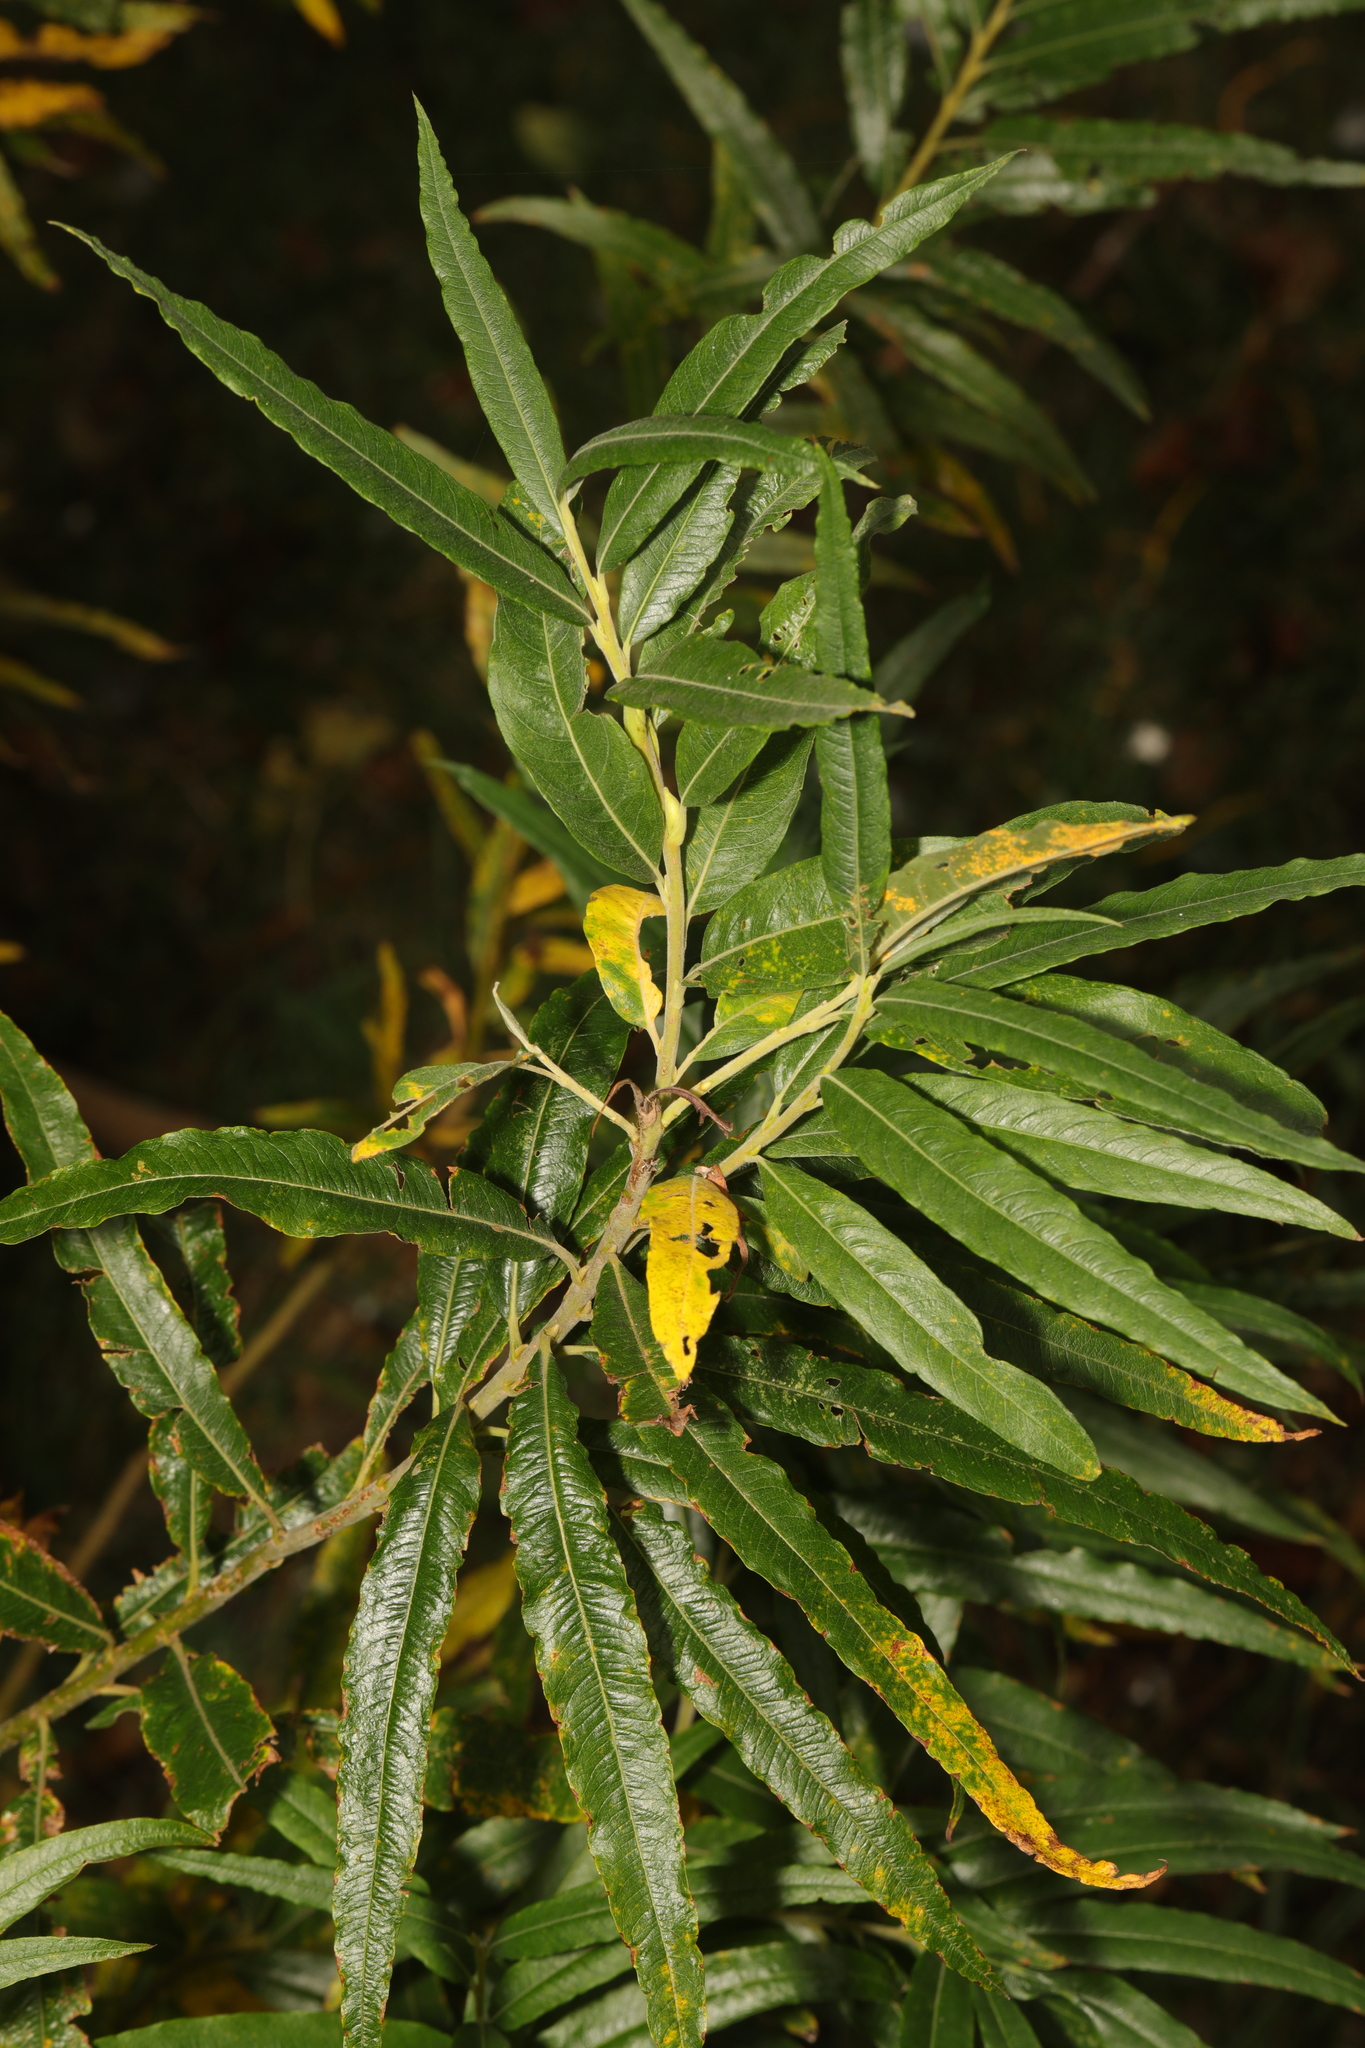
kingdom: Plantae
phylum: Tracheophyta
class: Magnoliopsida
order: Malpighiales
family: Salicaceae
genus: Salix
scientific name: Salix viminalis
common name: Osier
